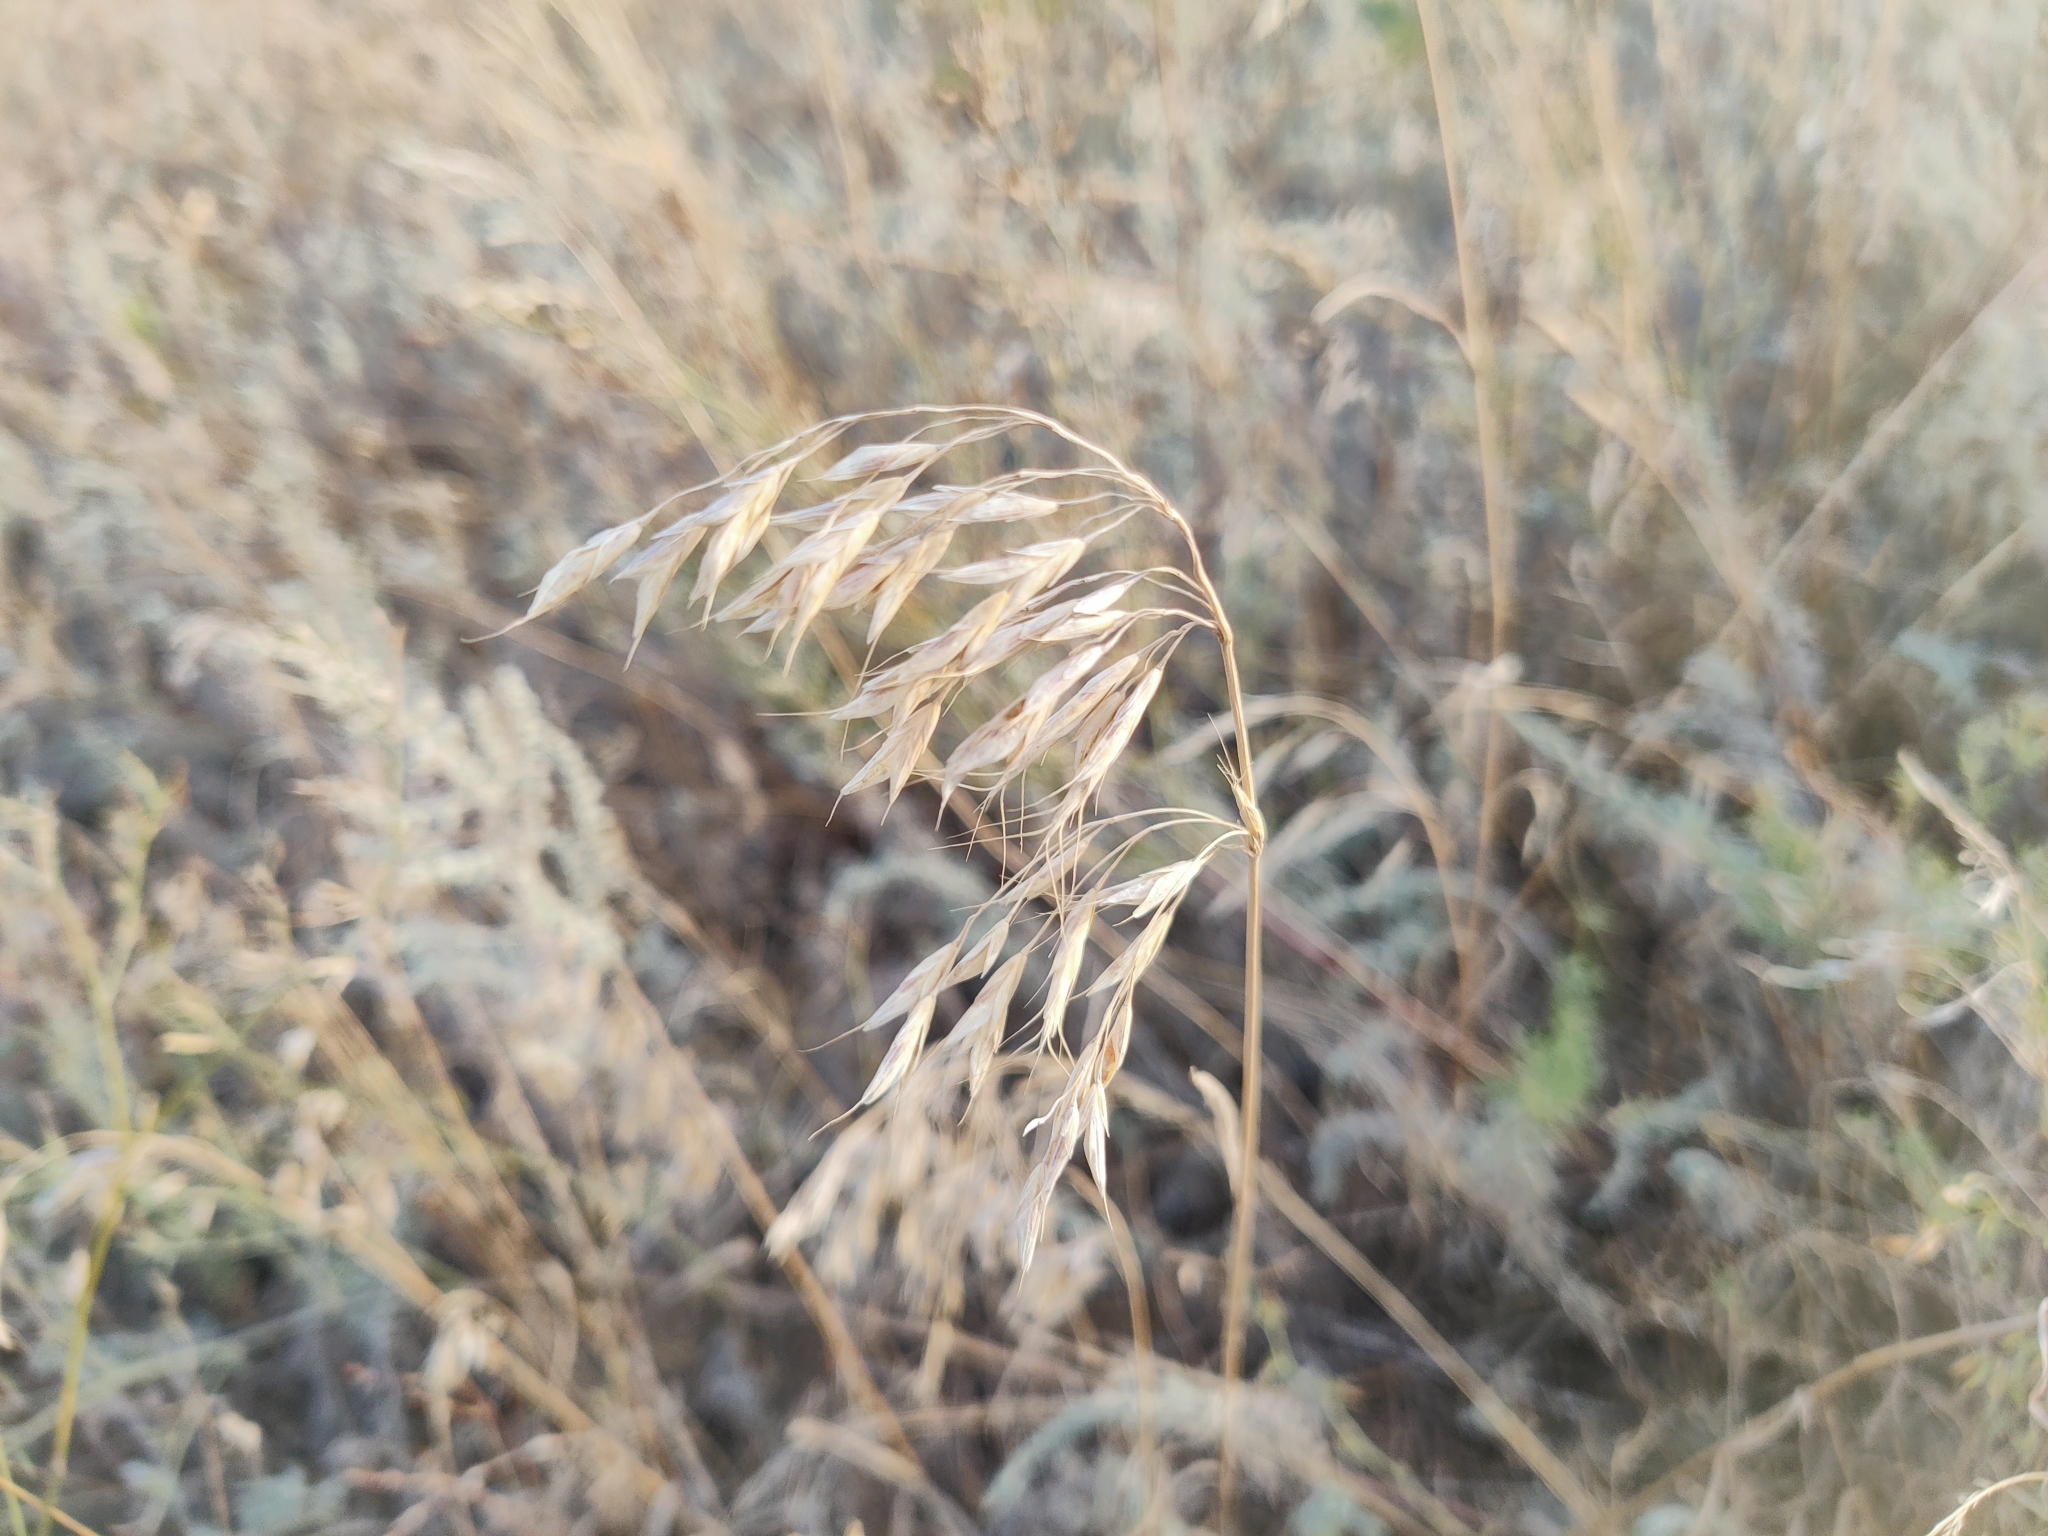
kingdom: Plantae
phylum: Tracheophyta
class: Liliopsida
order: Poales
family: Poaceae
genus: Bromus
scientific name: Bromus squarrosus
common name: Corn brome
